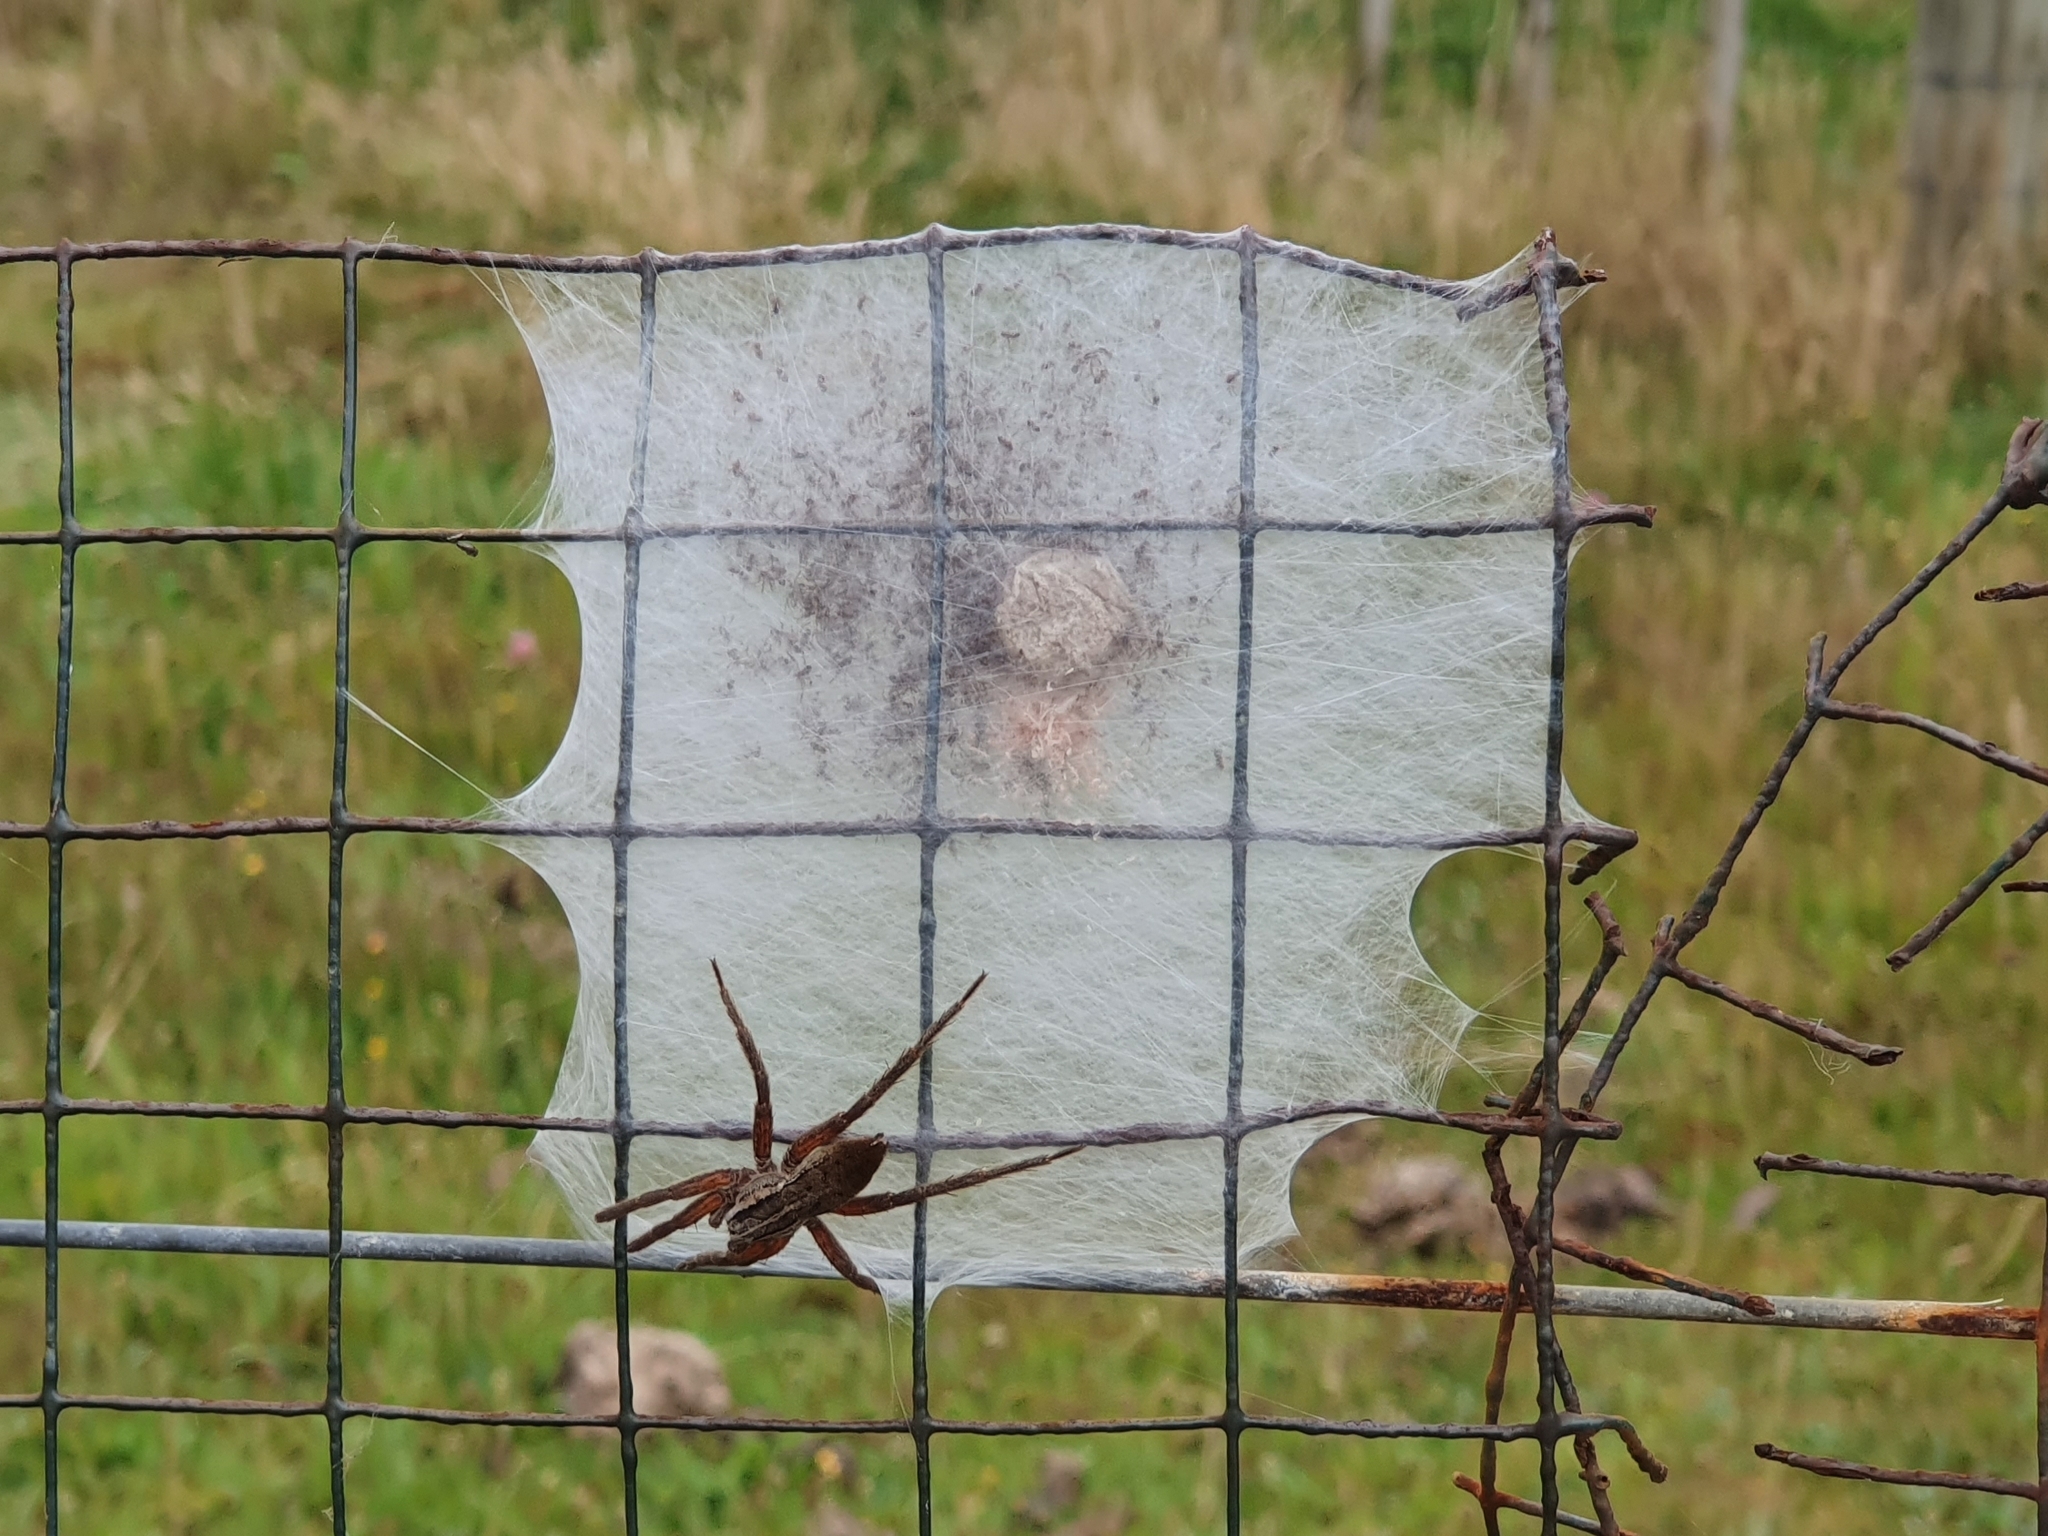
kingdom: Animalia
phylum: Arthropoda
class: Arachnida
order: Araneae
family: Pisauridae
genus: Dolomedes
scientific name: Dolomedes minor
